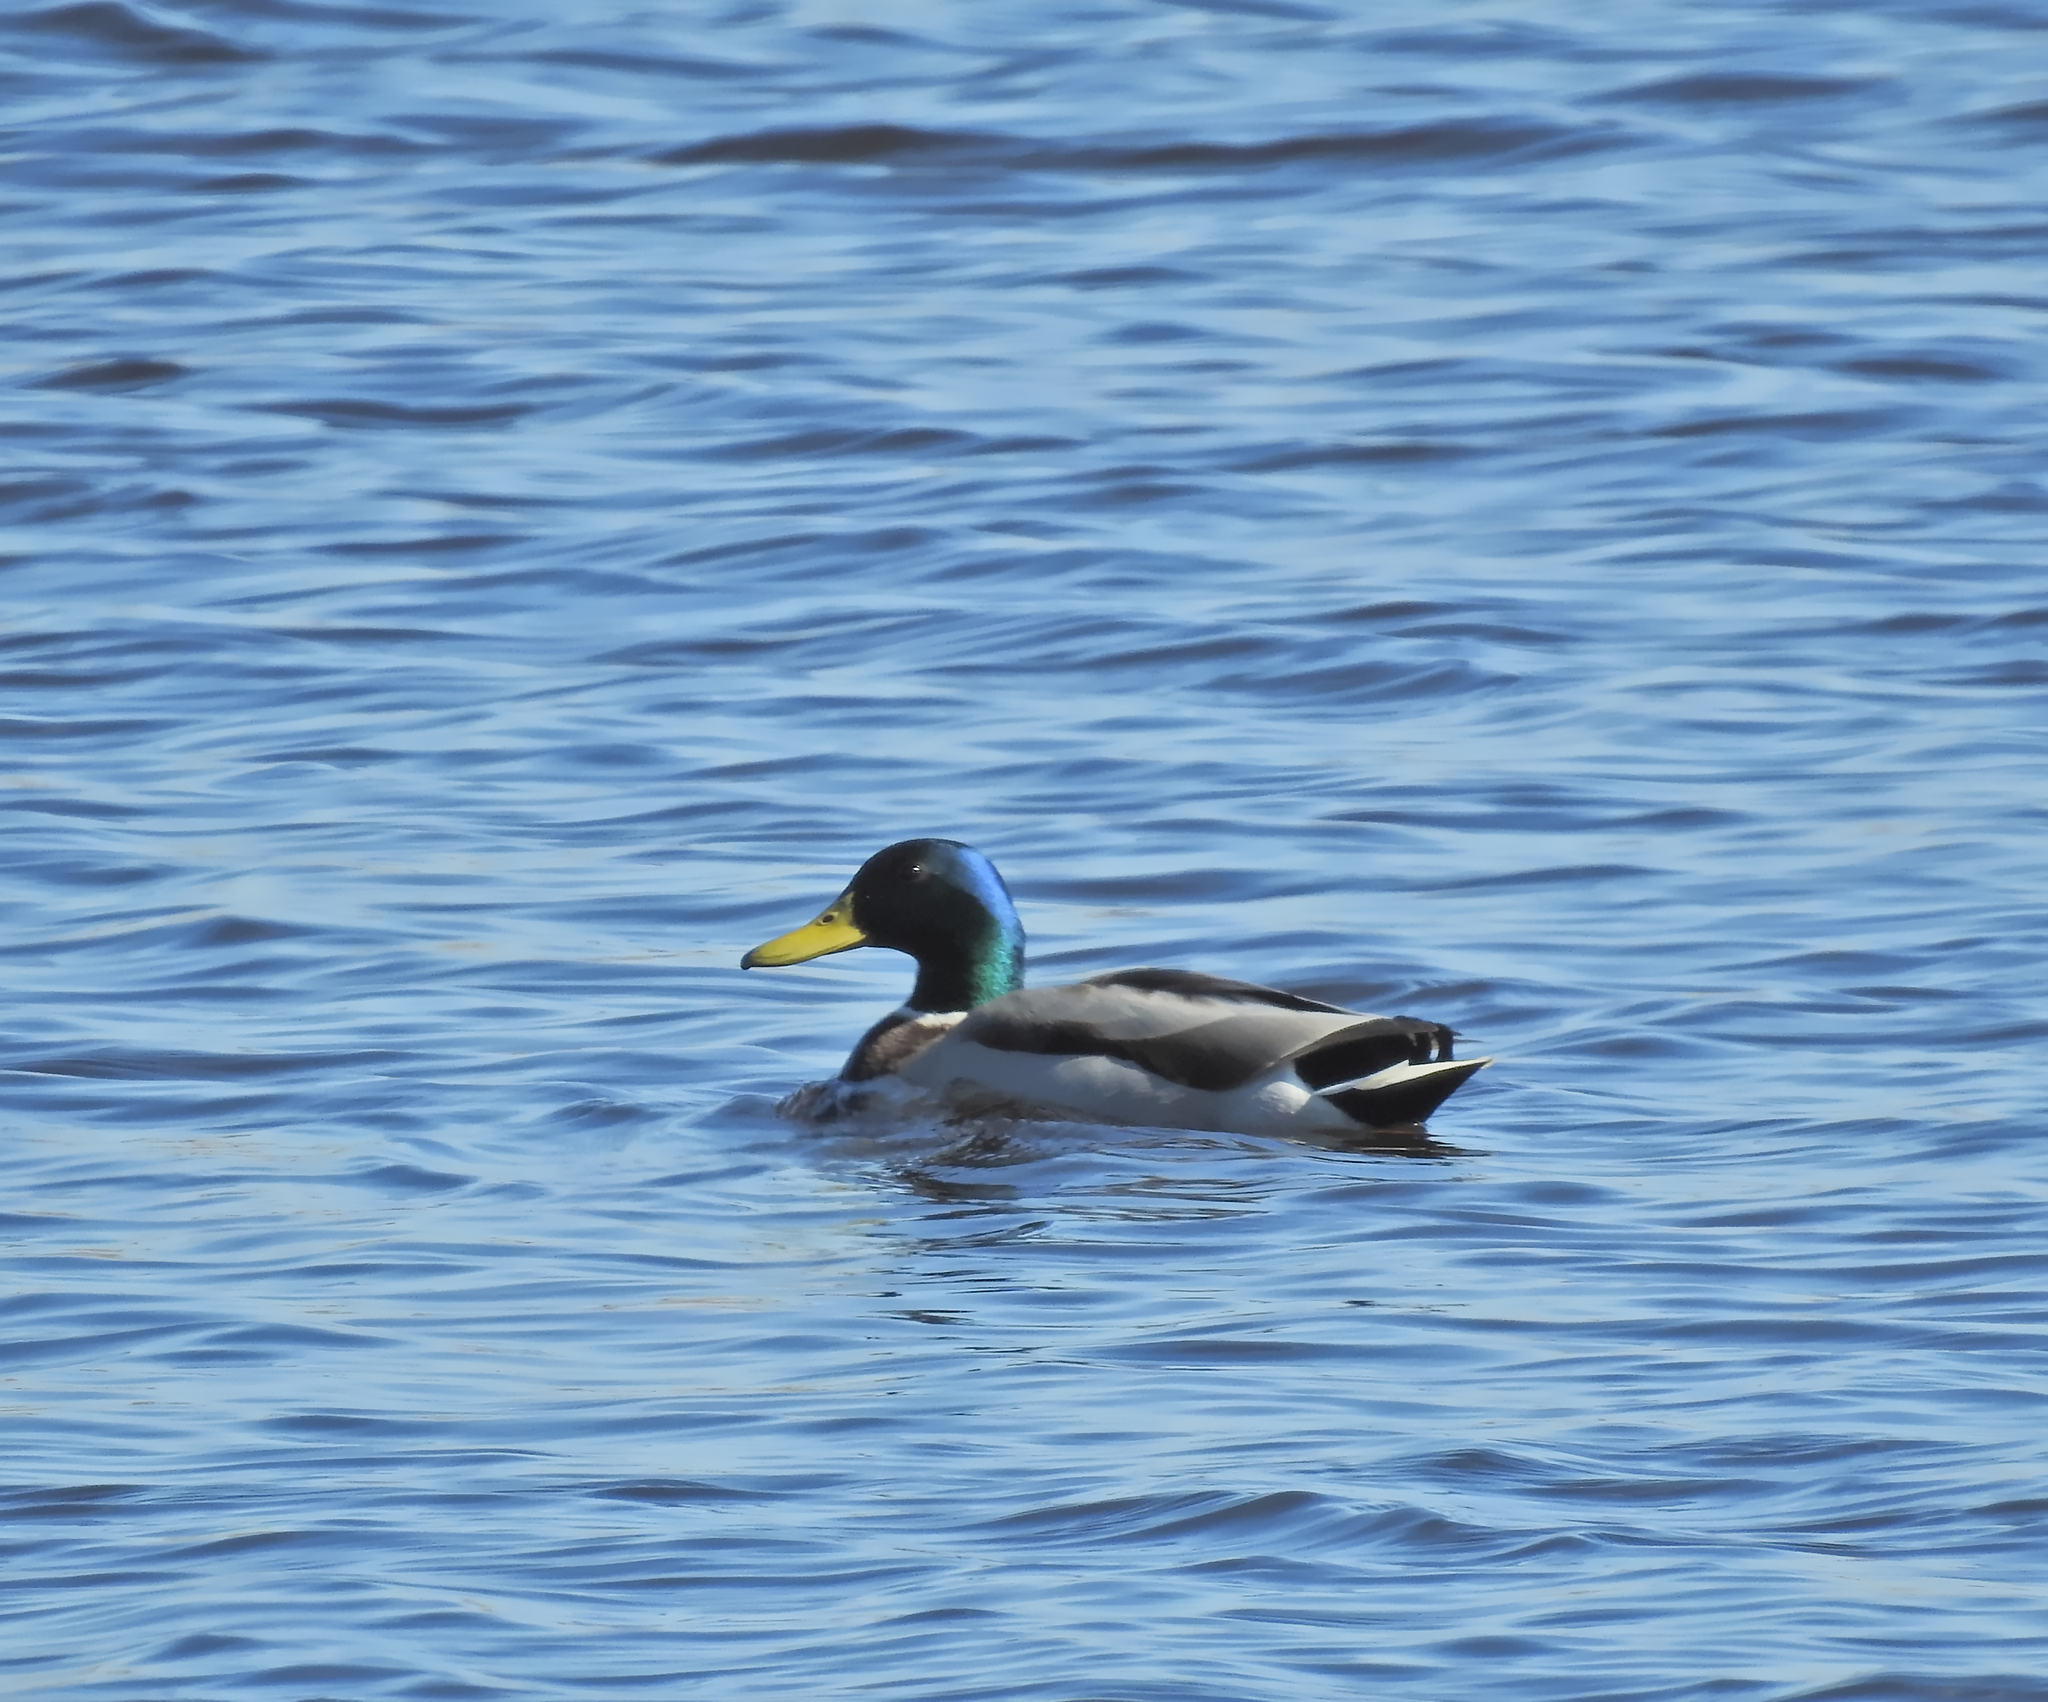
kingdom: Animalia
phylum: Chordata
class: Aves
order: Anseriformes
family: Anatidae
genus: Anas
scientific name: Anas platyrhynchos
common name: Mallard
